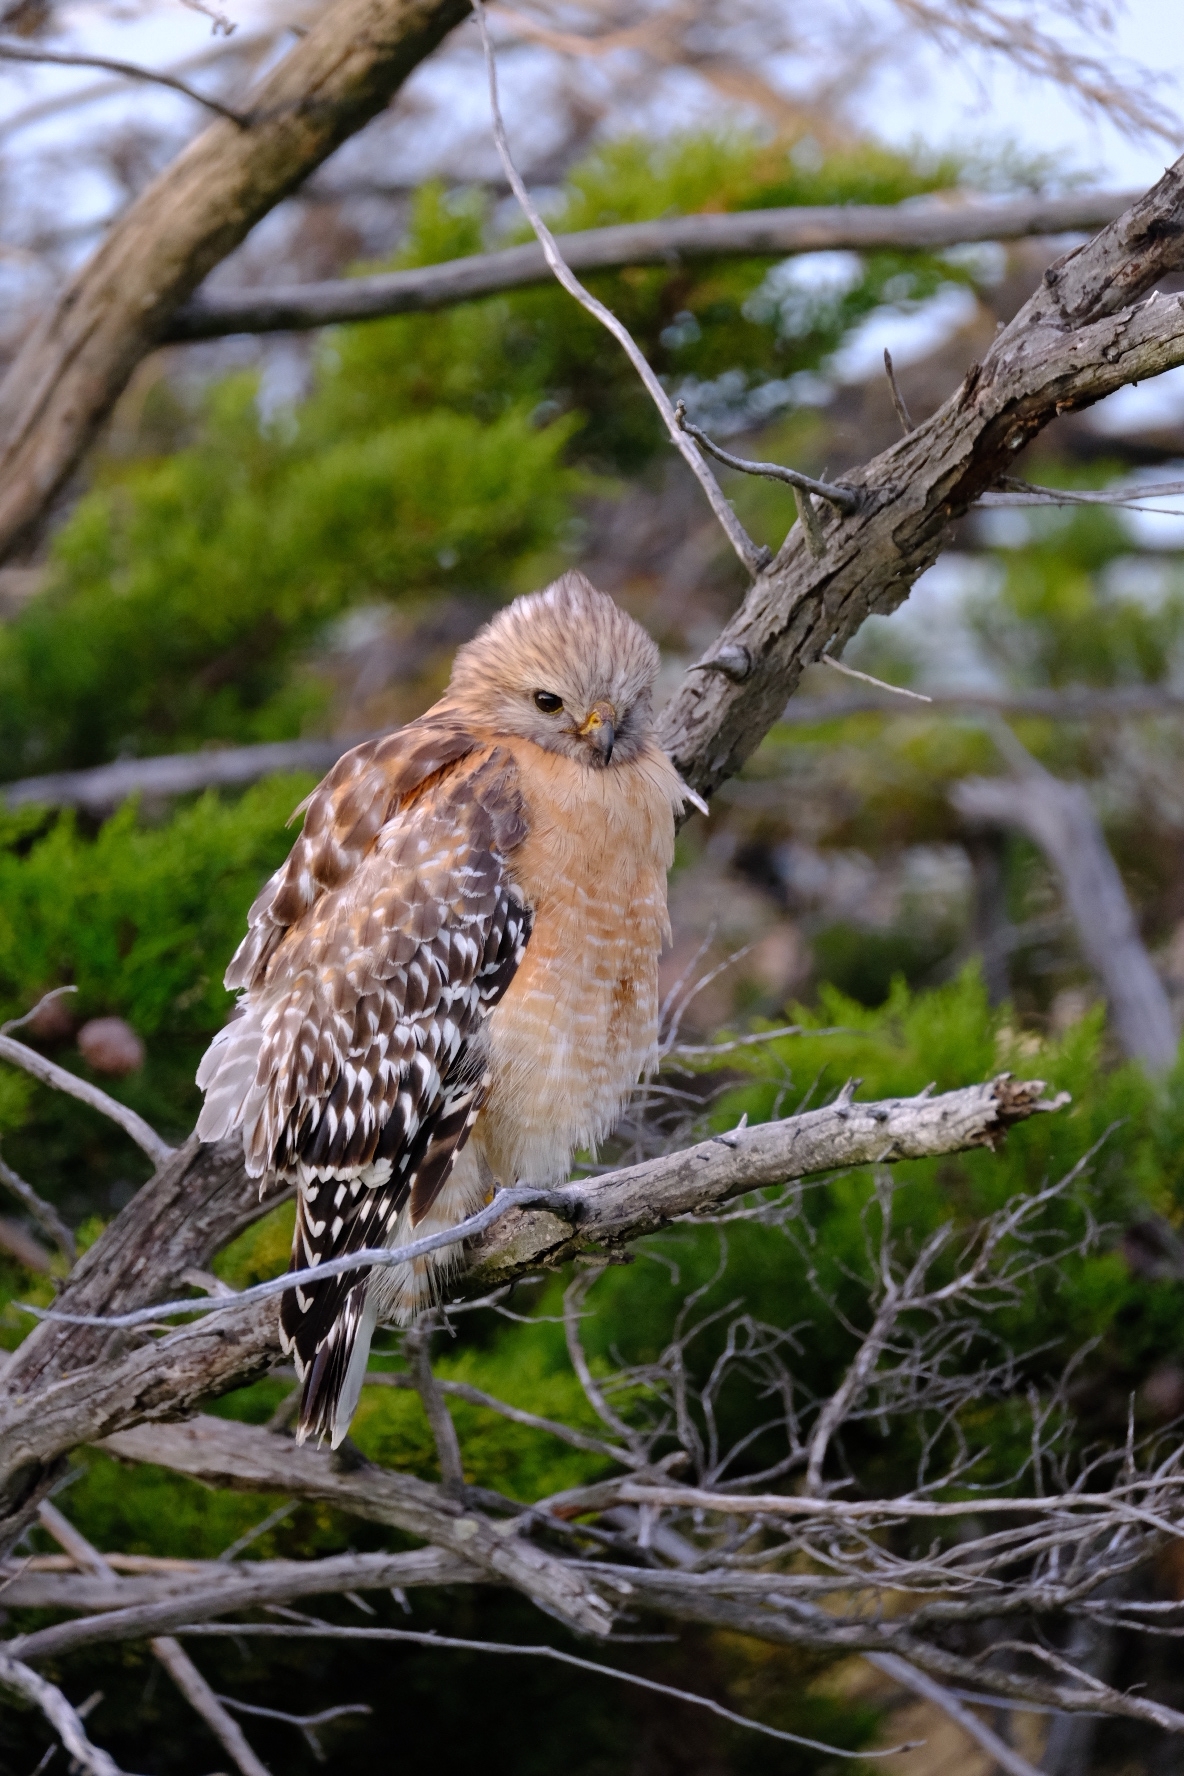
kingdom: Animalia
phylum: Chordata
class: Aves
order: Accipitriformes
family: Accipitridae
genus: Buteo
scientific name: Buteo lineatus
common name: Red-shouldered hawk
